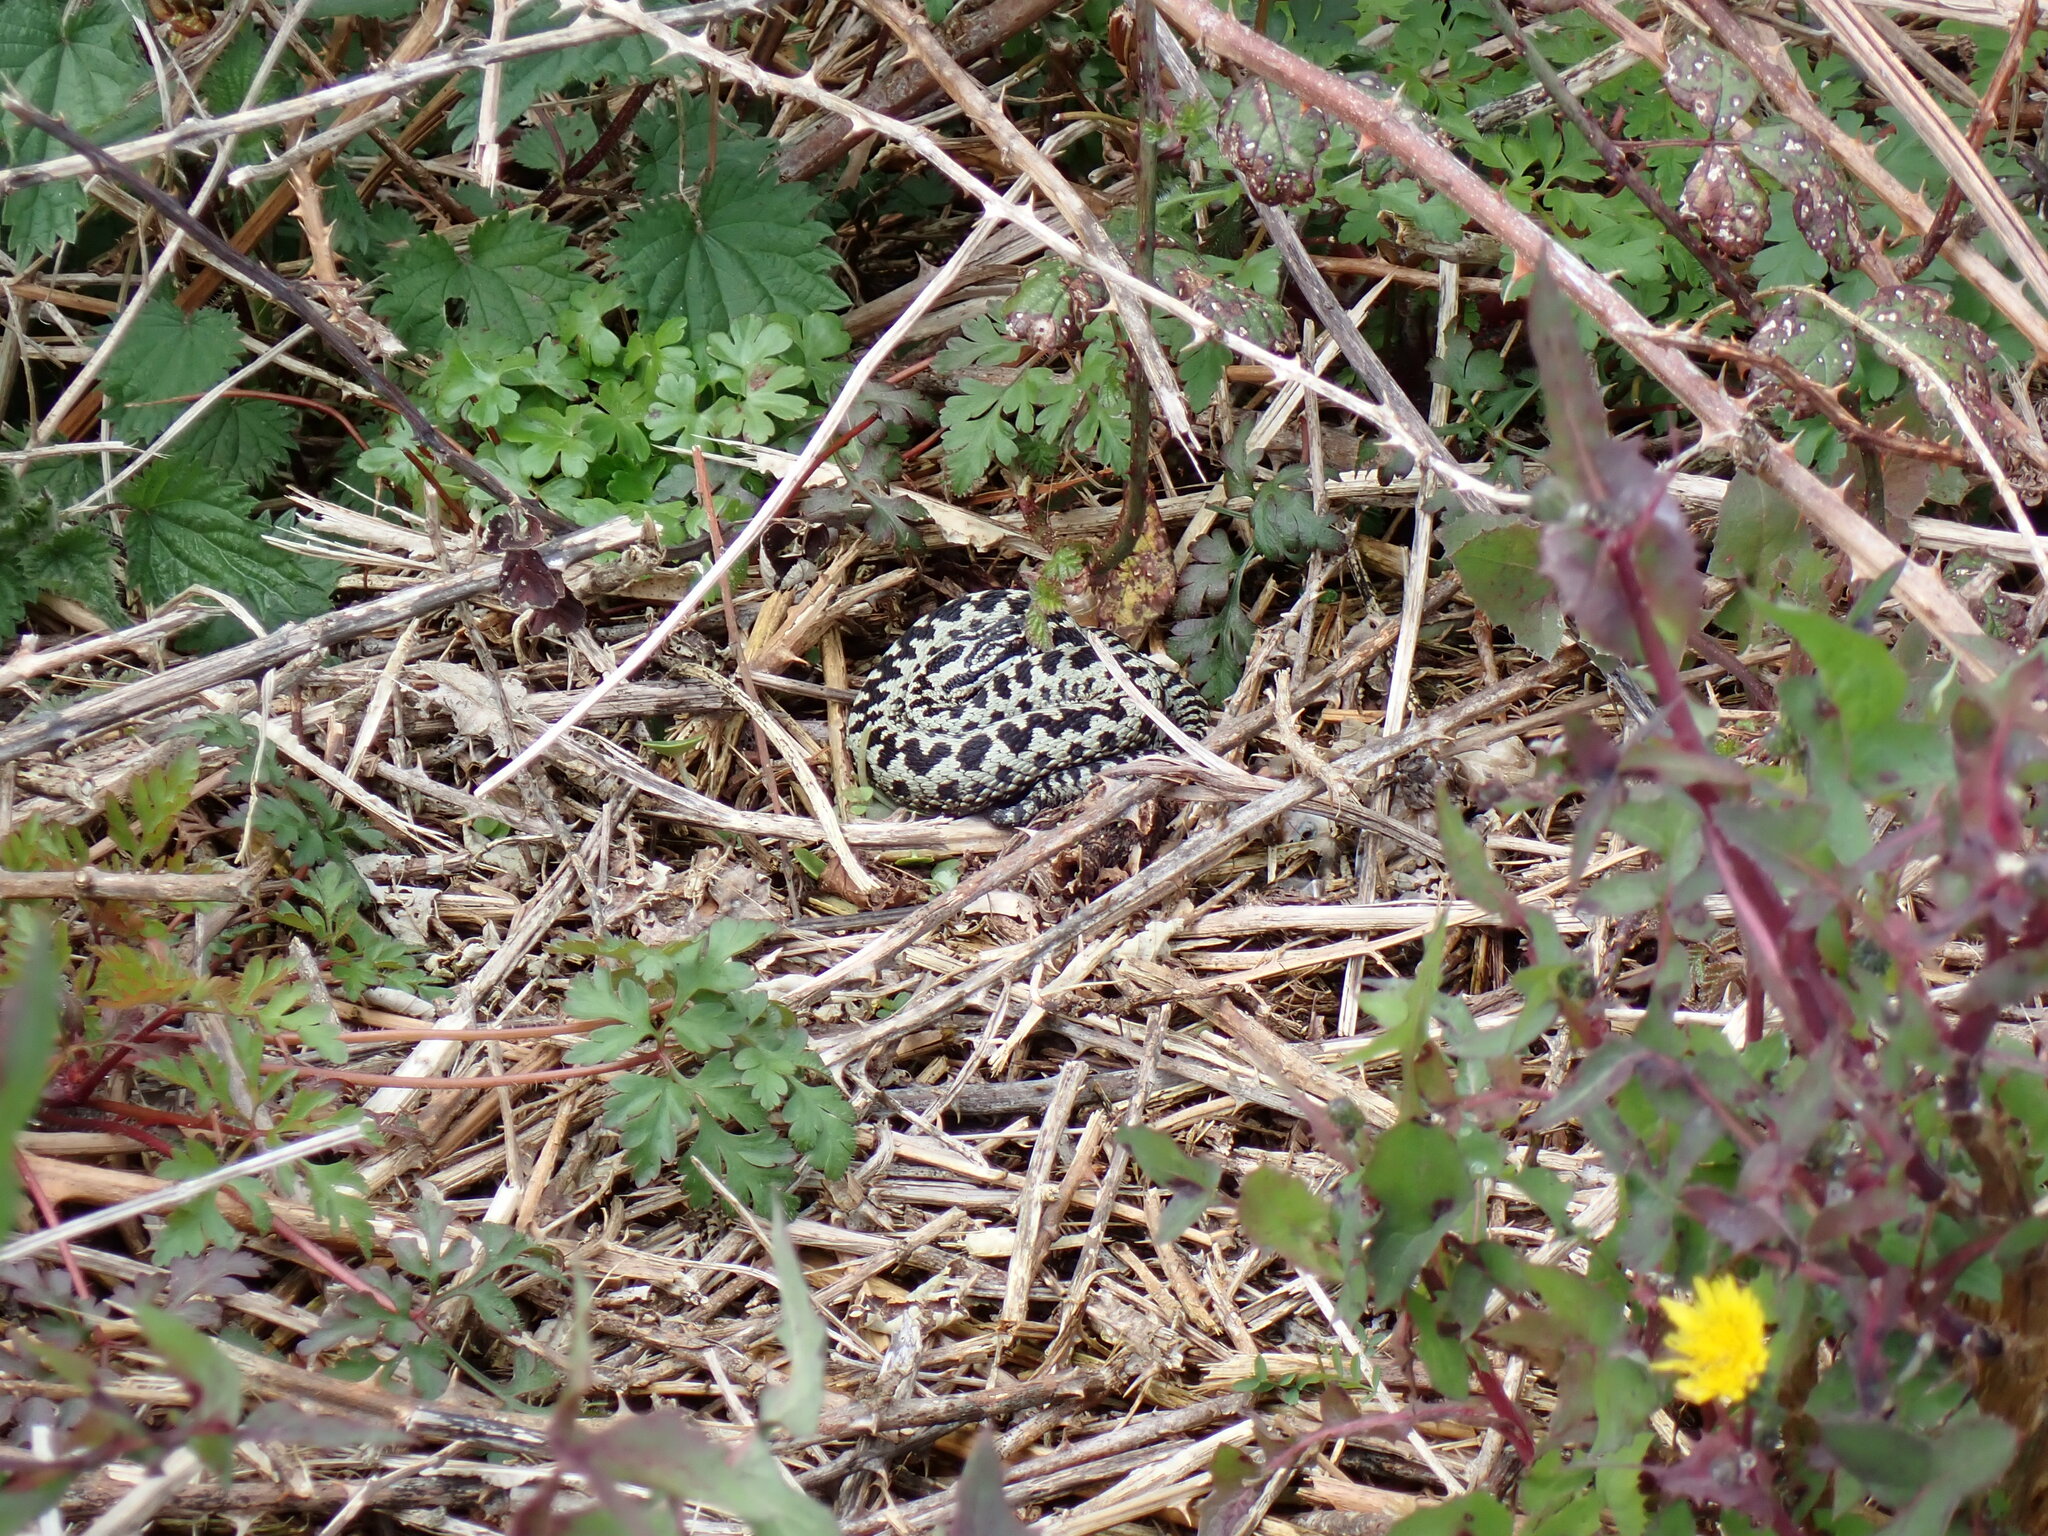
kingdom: Animalia
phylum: Chordata
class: Squamata
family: Viperidae
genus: Vipera
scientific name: Vipera berus
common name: Adder
